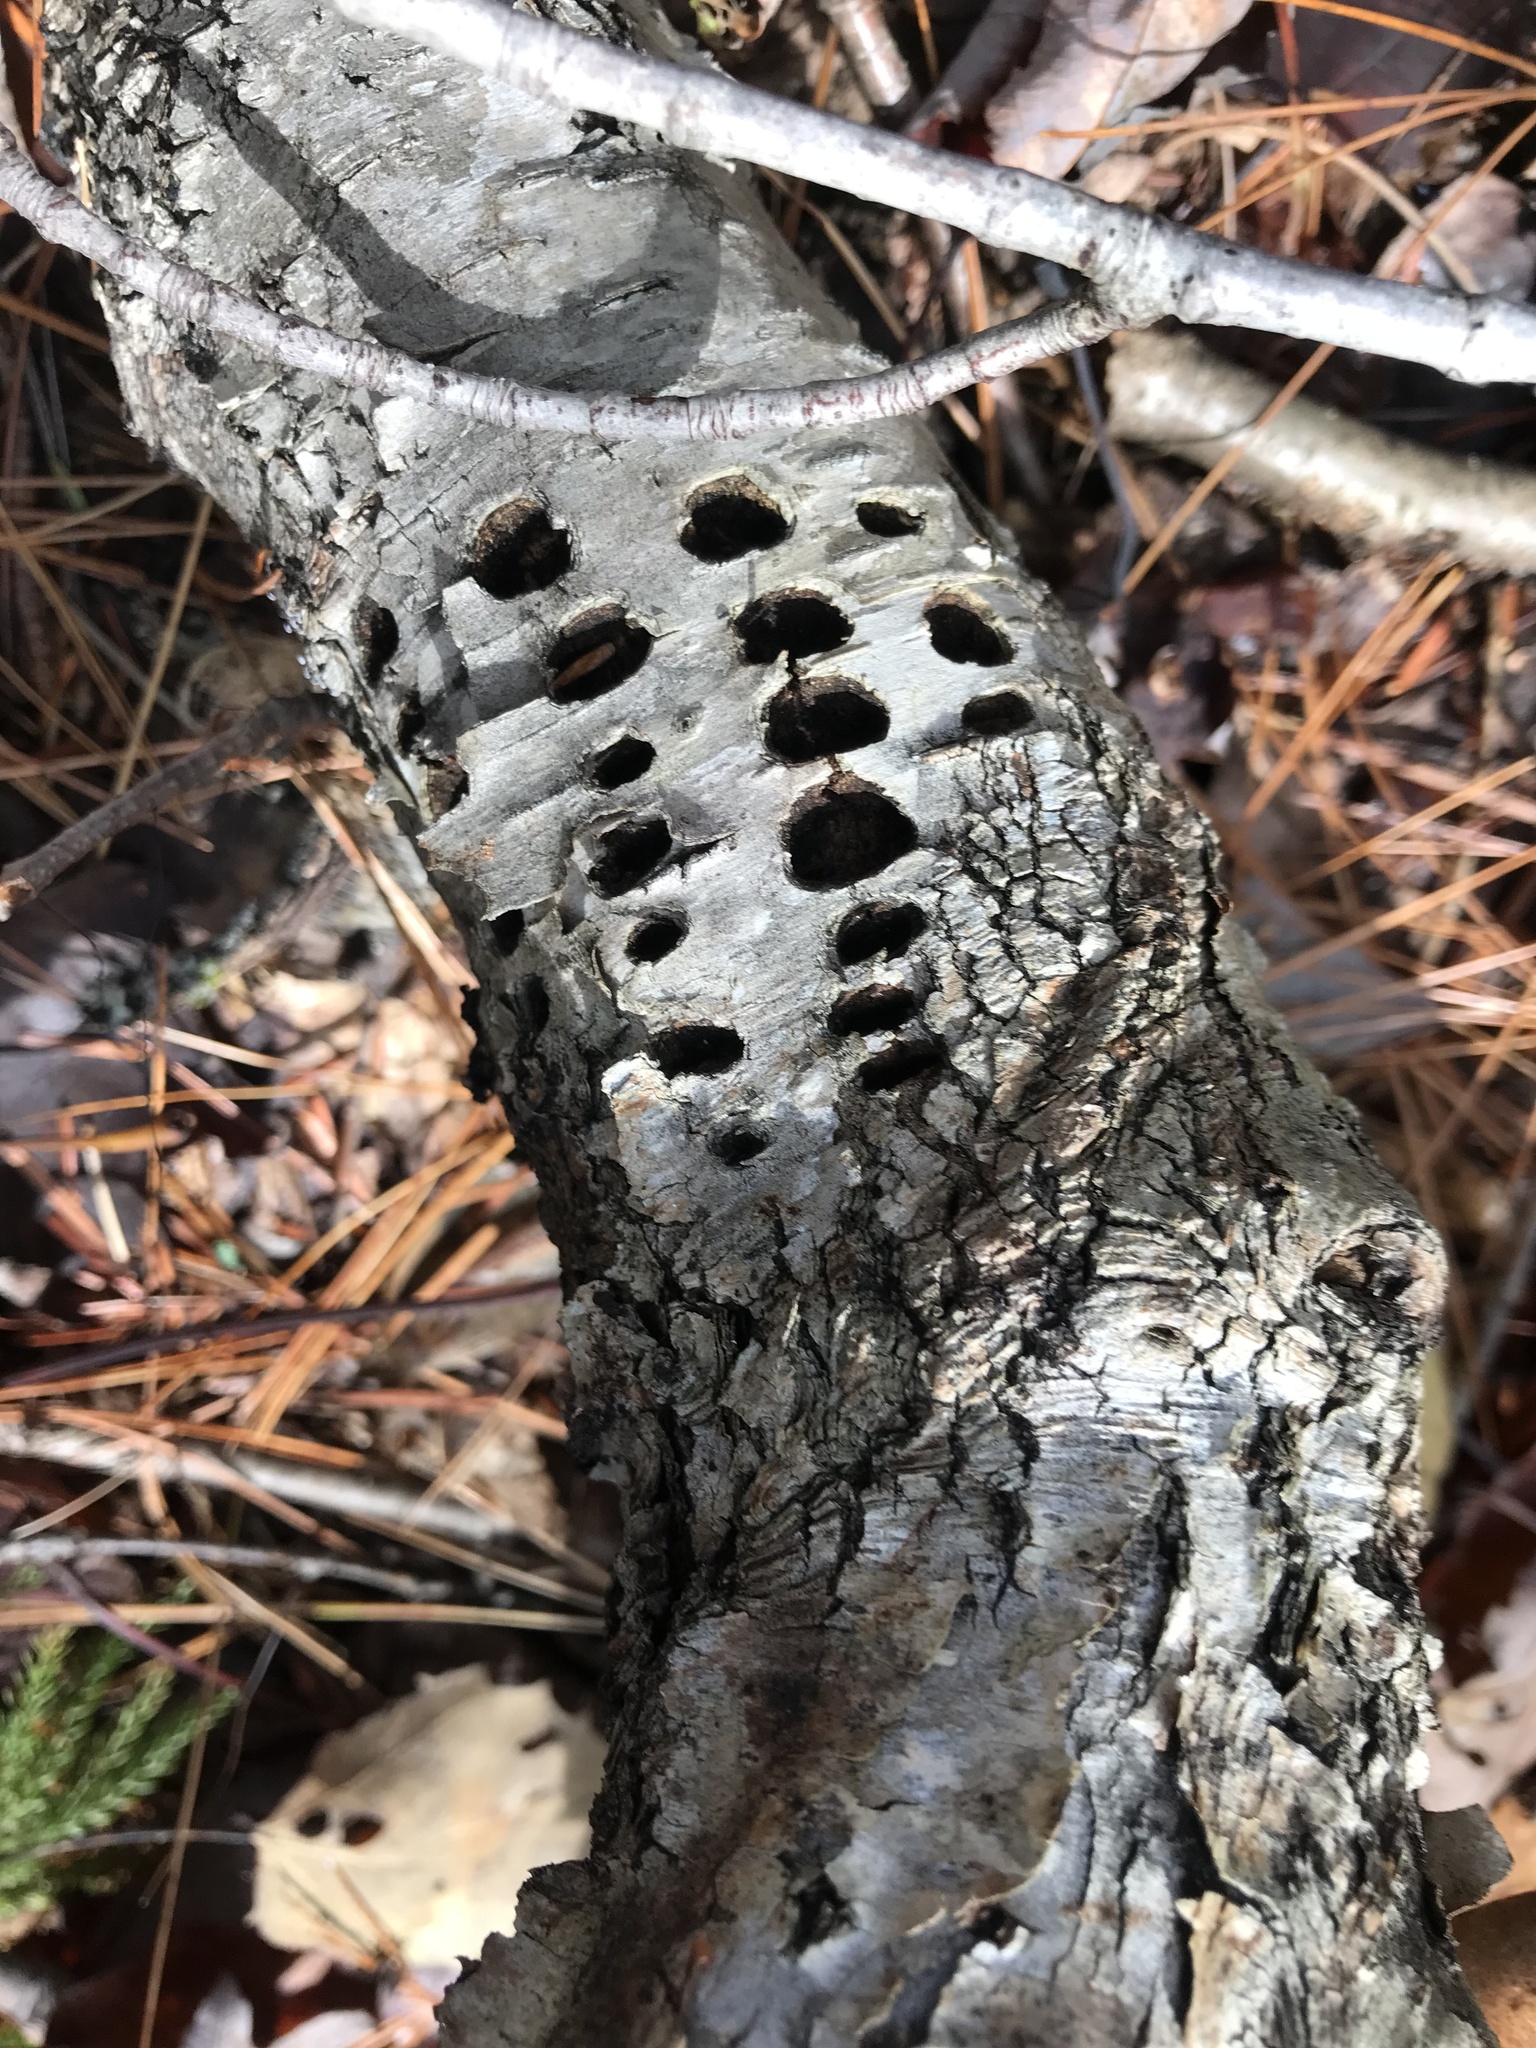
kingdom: Animalia
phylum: Chordata
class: Aves
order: Piciformes
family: Picidae
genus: Sphyrapicus
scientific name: Sphyrapicus varius
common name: Yellow-bellied sapsucker
